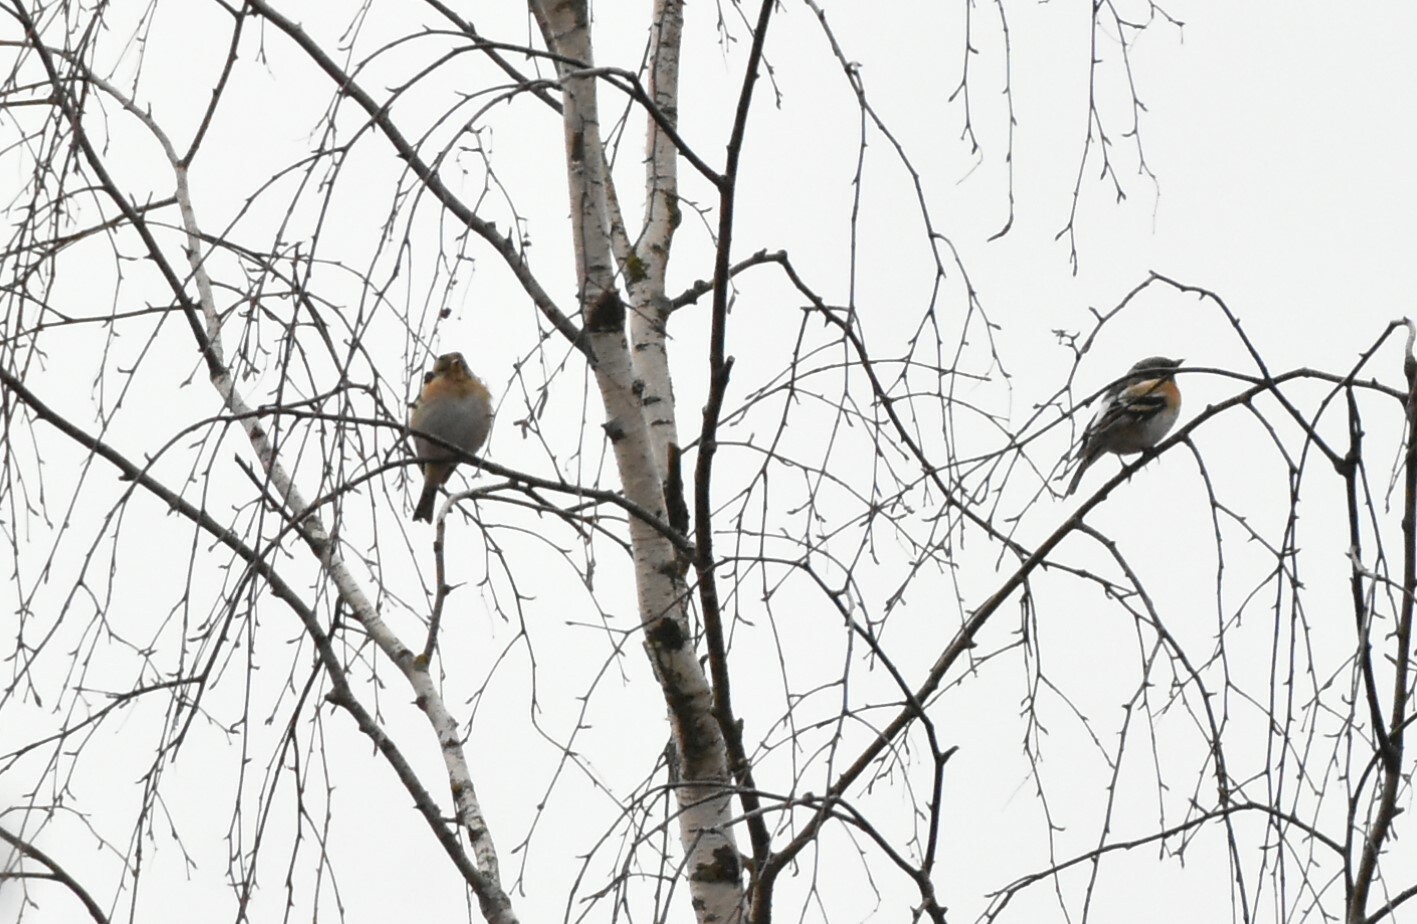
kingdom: Animalia
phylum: Chordata
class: Aves
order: Passeriformes
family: Fringillidae
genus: Fringilla
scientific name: Fringilla montifringilla
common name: Brambling
